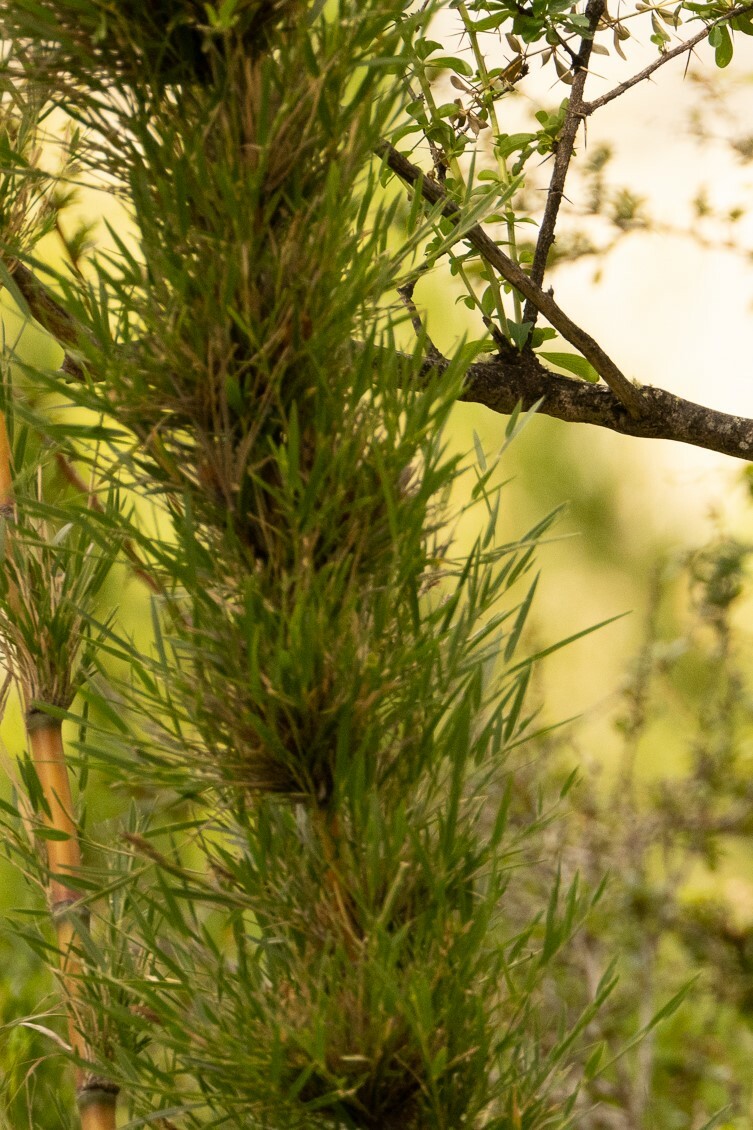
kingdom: Plantae
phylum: Tracheophyta
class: Liliopsida
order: Poales
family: Poaceae
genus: Chusquea
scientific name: Chusquea culeou
